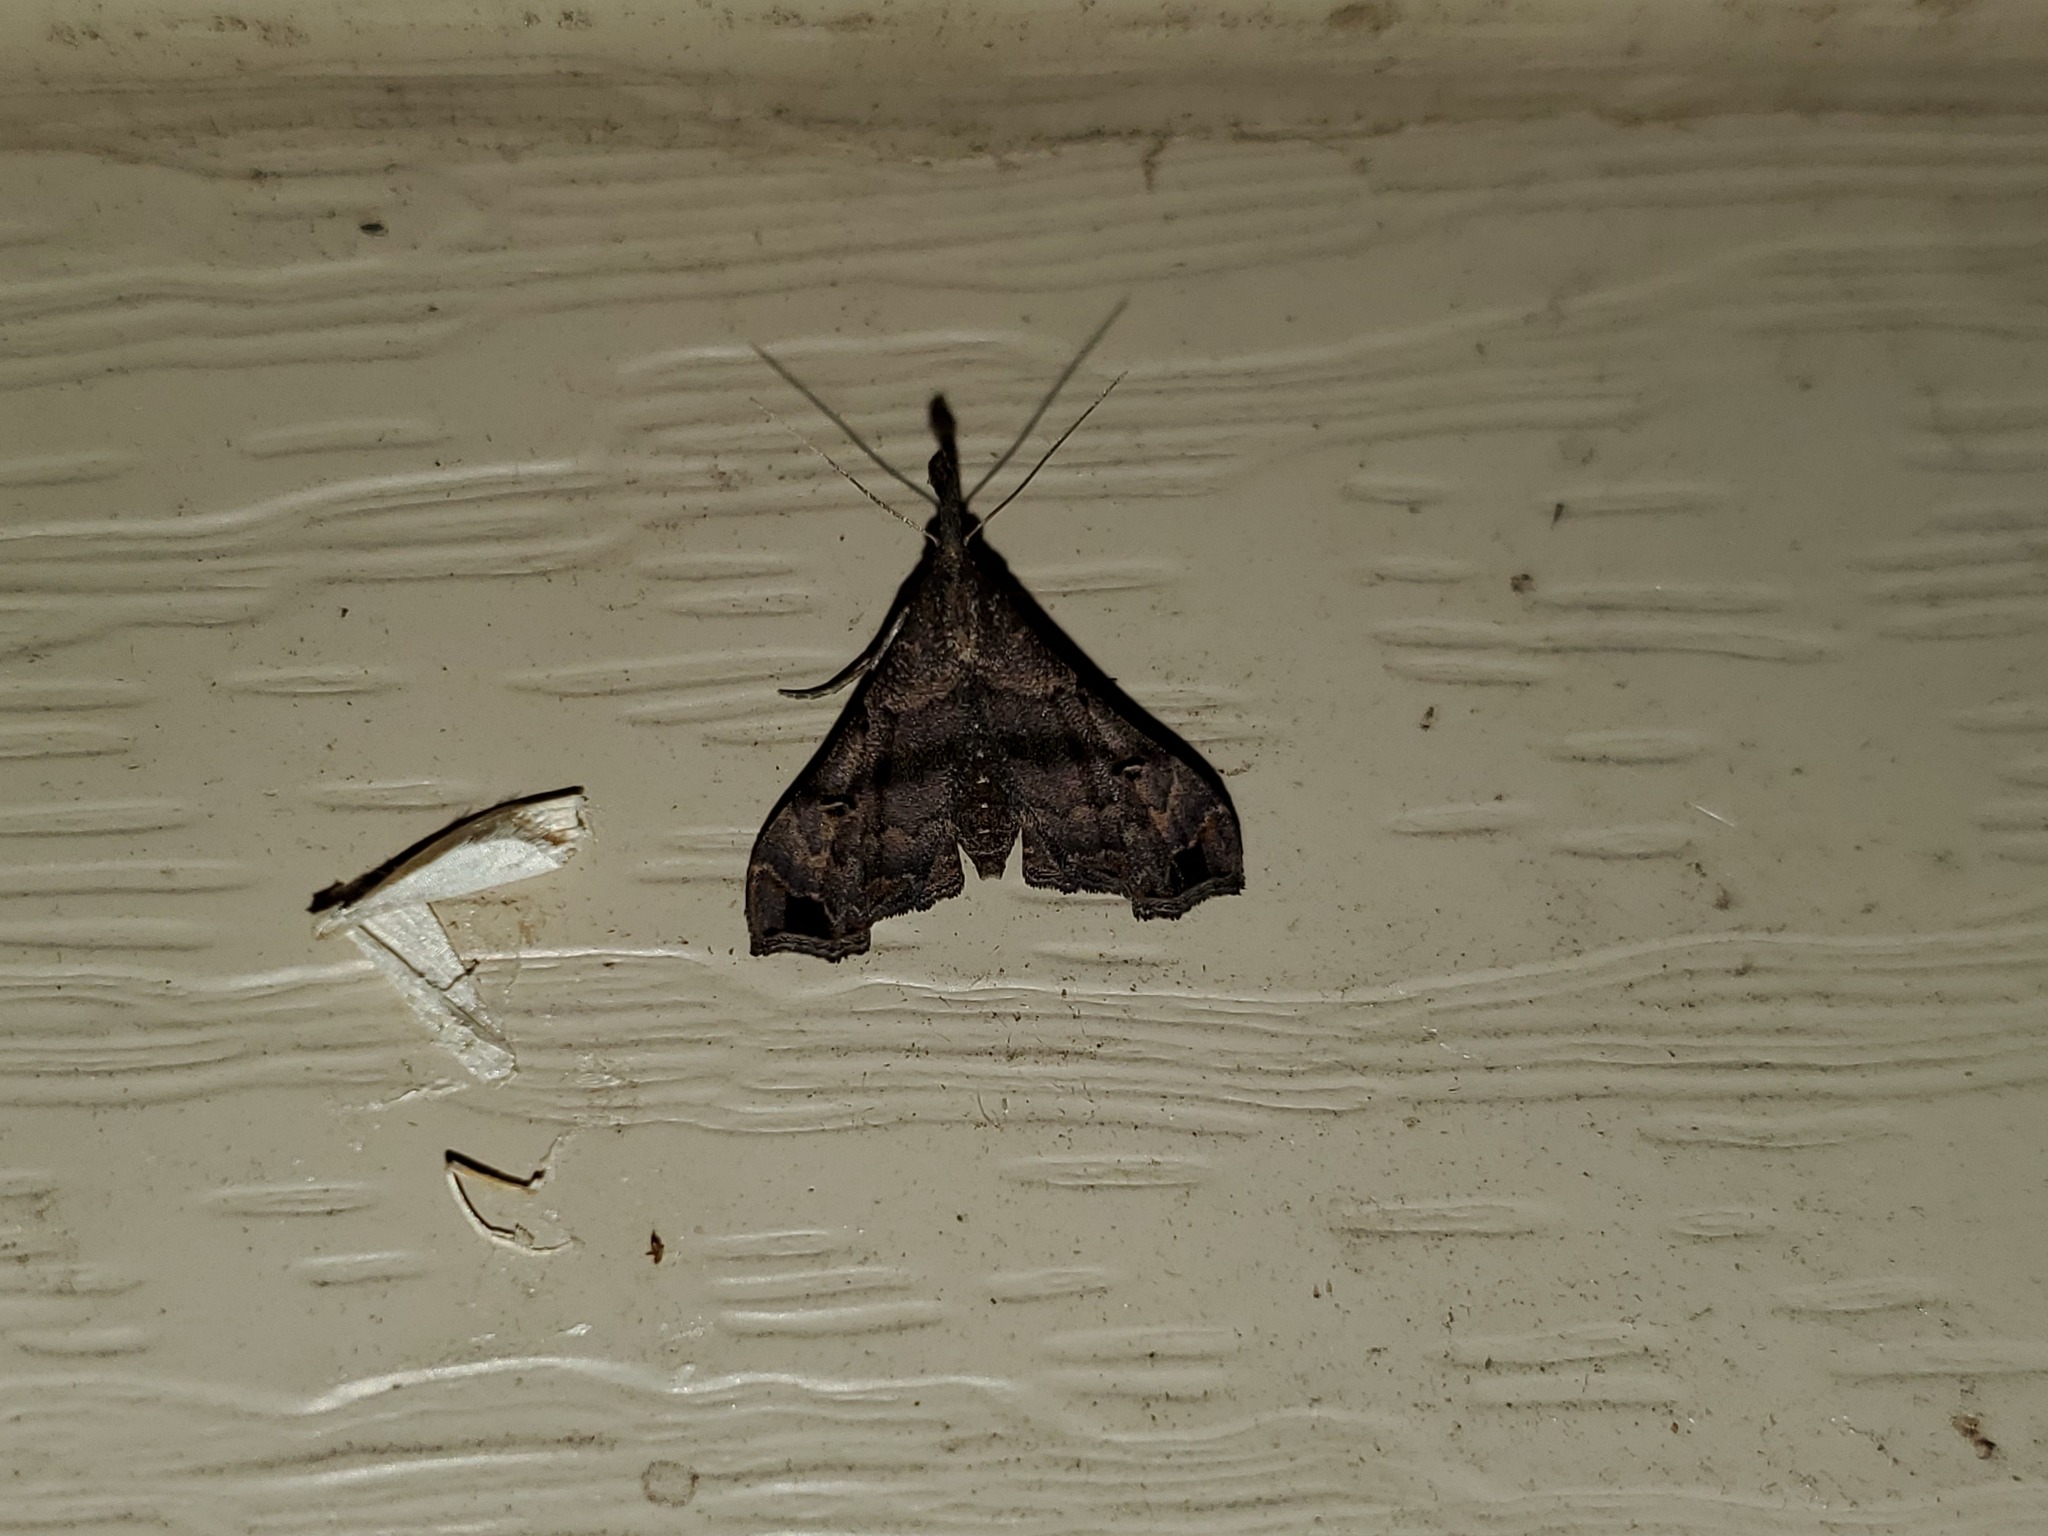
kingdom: Animalia
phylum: Arthropoda
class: Insecta
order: Lepidoptera
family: Erebidae
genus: Palthis
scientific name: Palthis asopialis
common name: Faint-spotted palthis moth
